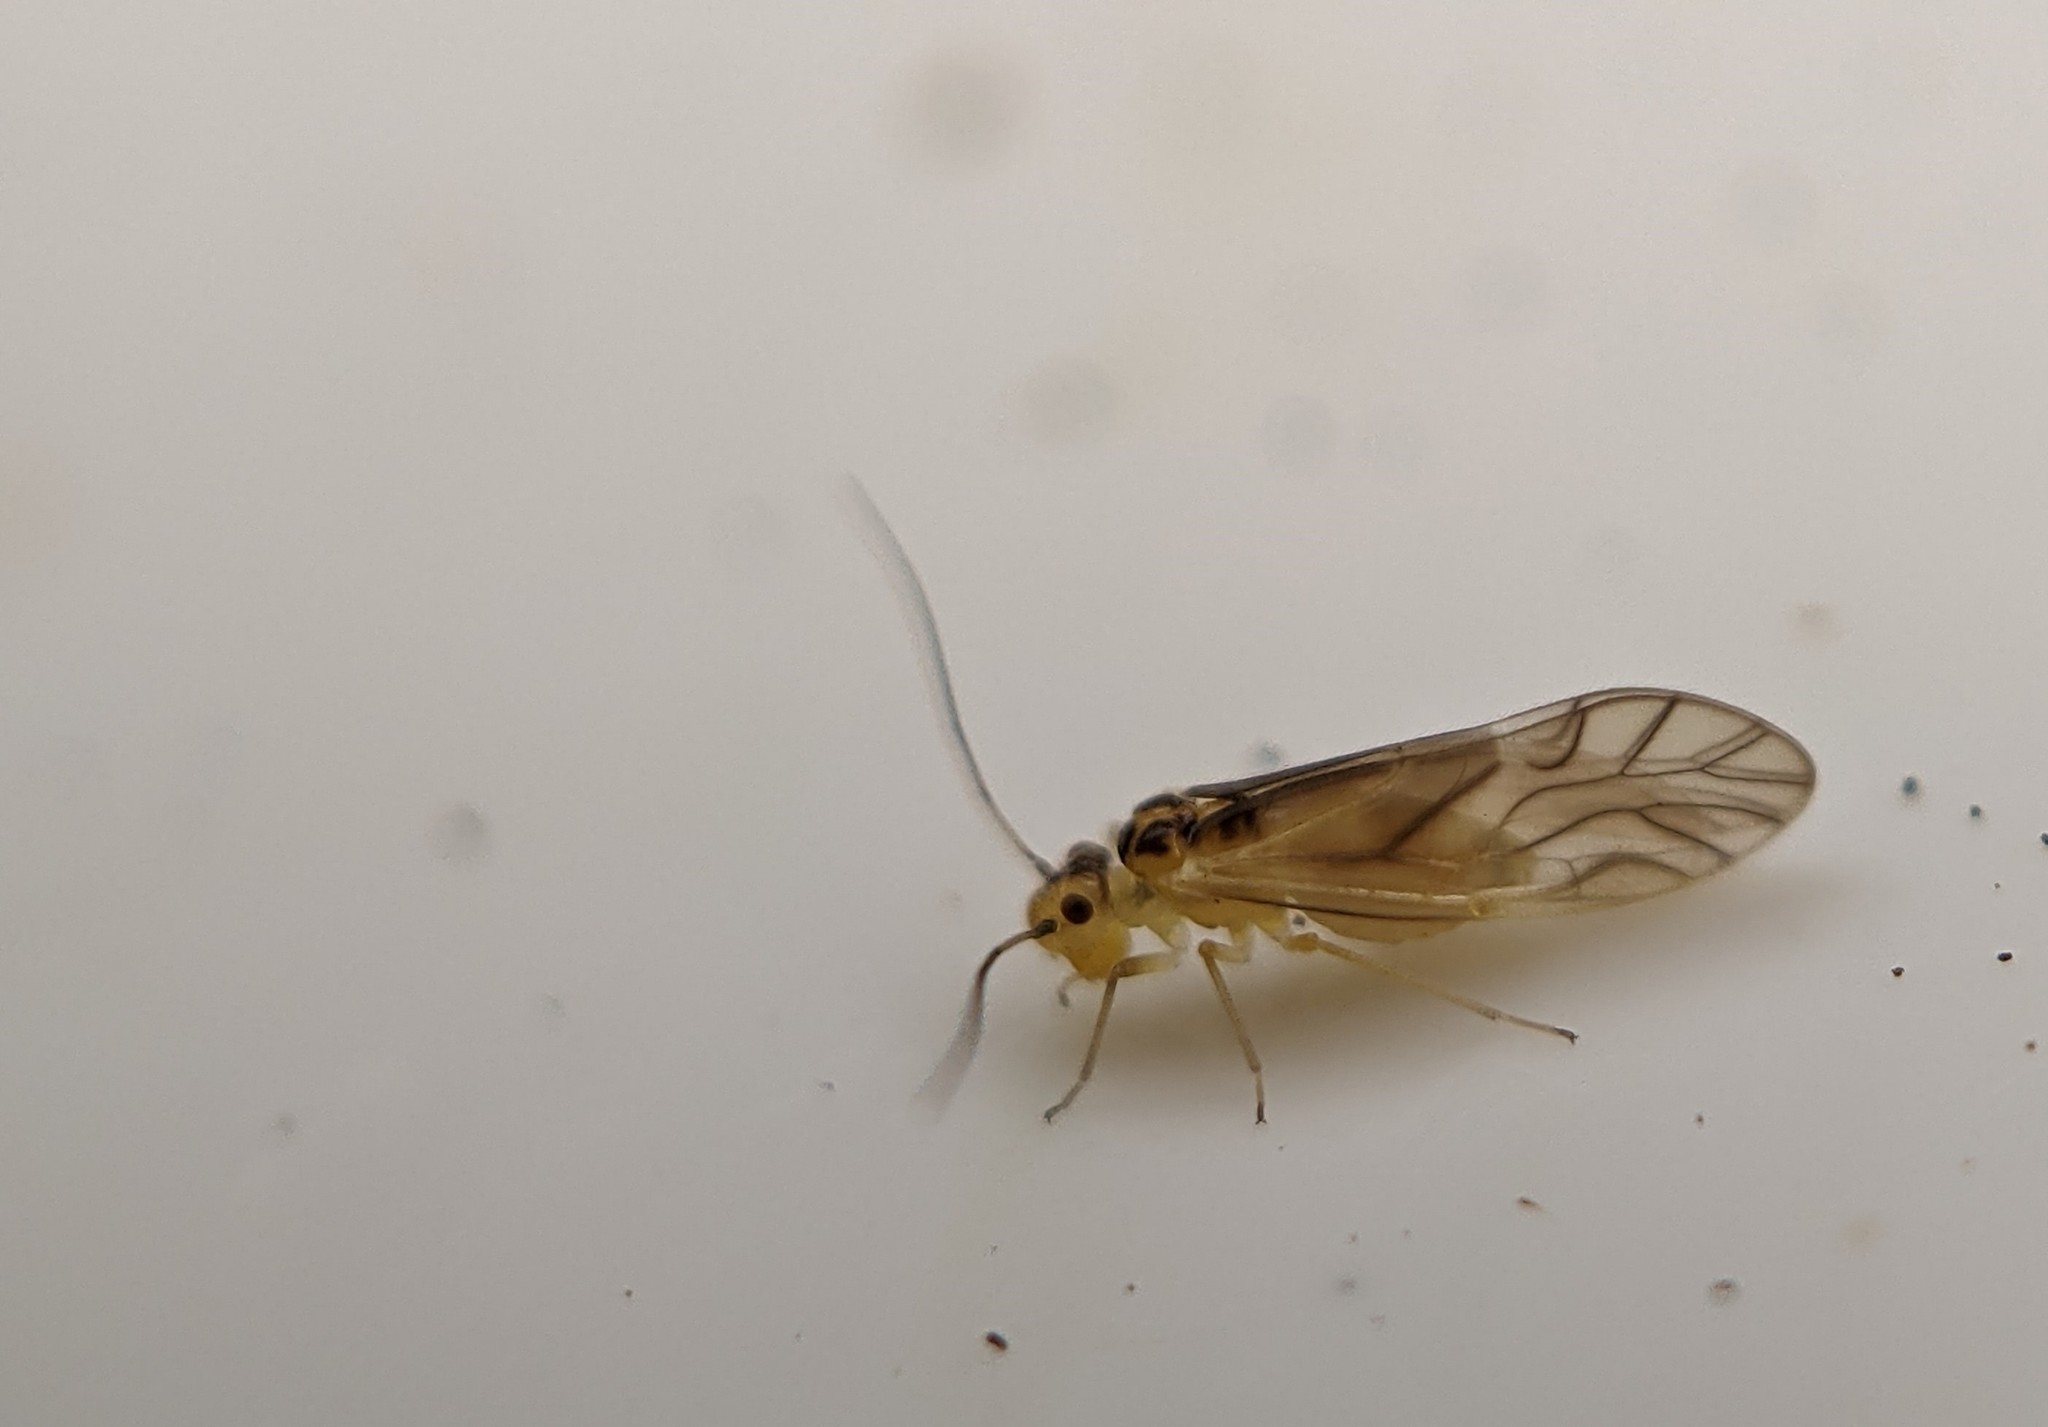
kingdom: Animalia
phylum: Arthropoda
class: Insecta
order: Psocodea
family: Caeciliusidae
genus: Valenzuela
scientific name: Valenzuela flavidus
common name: Yellow barklouse
